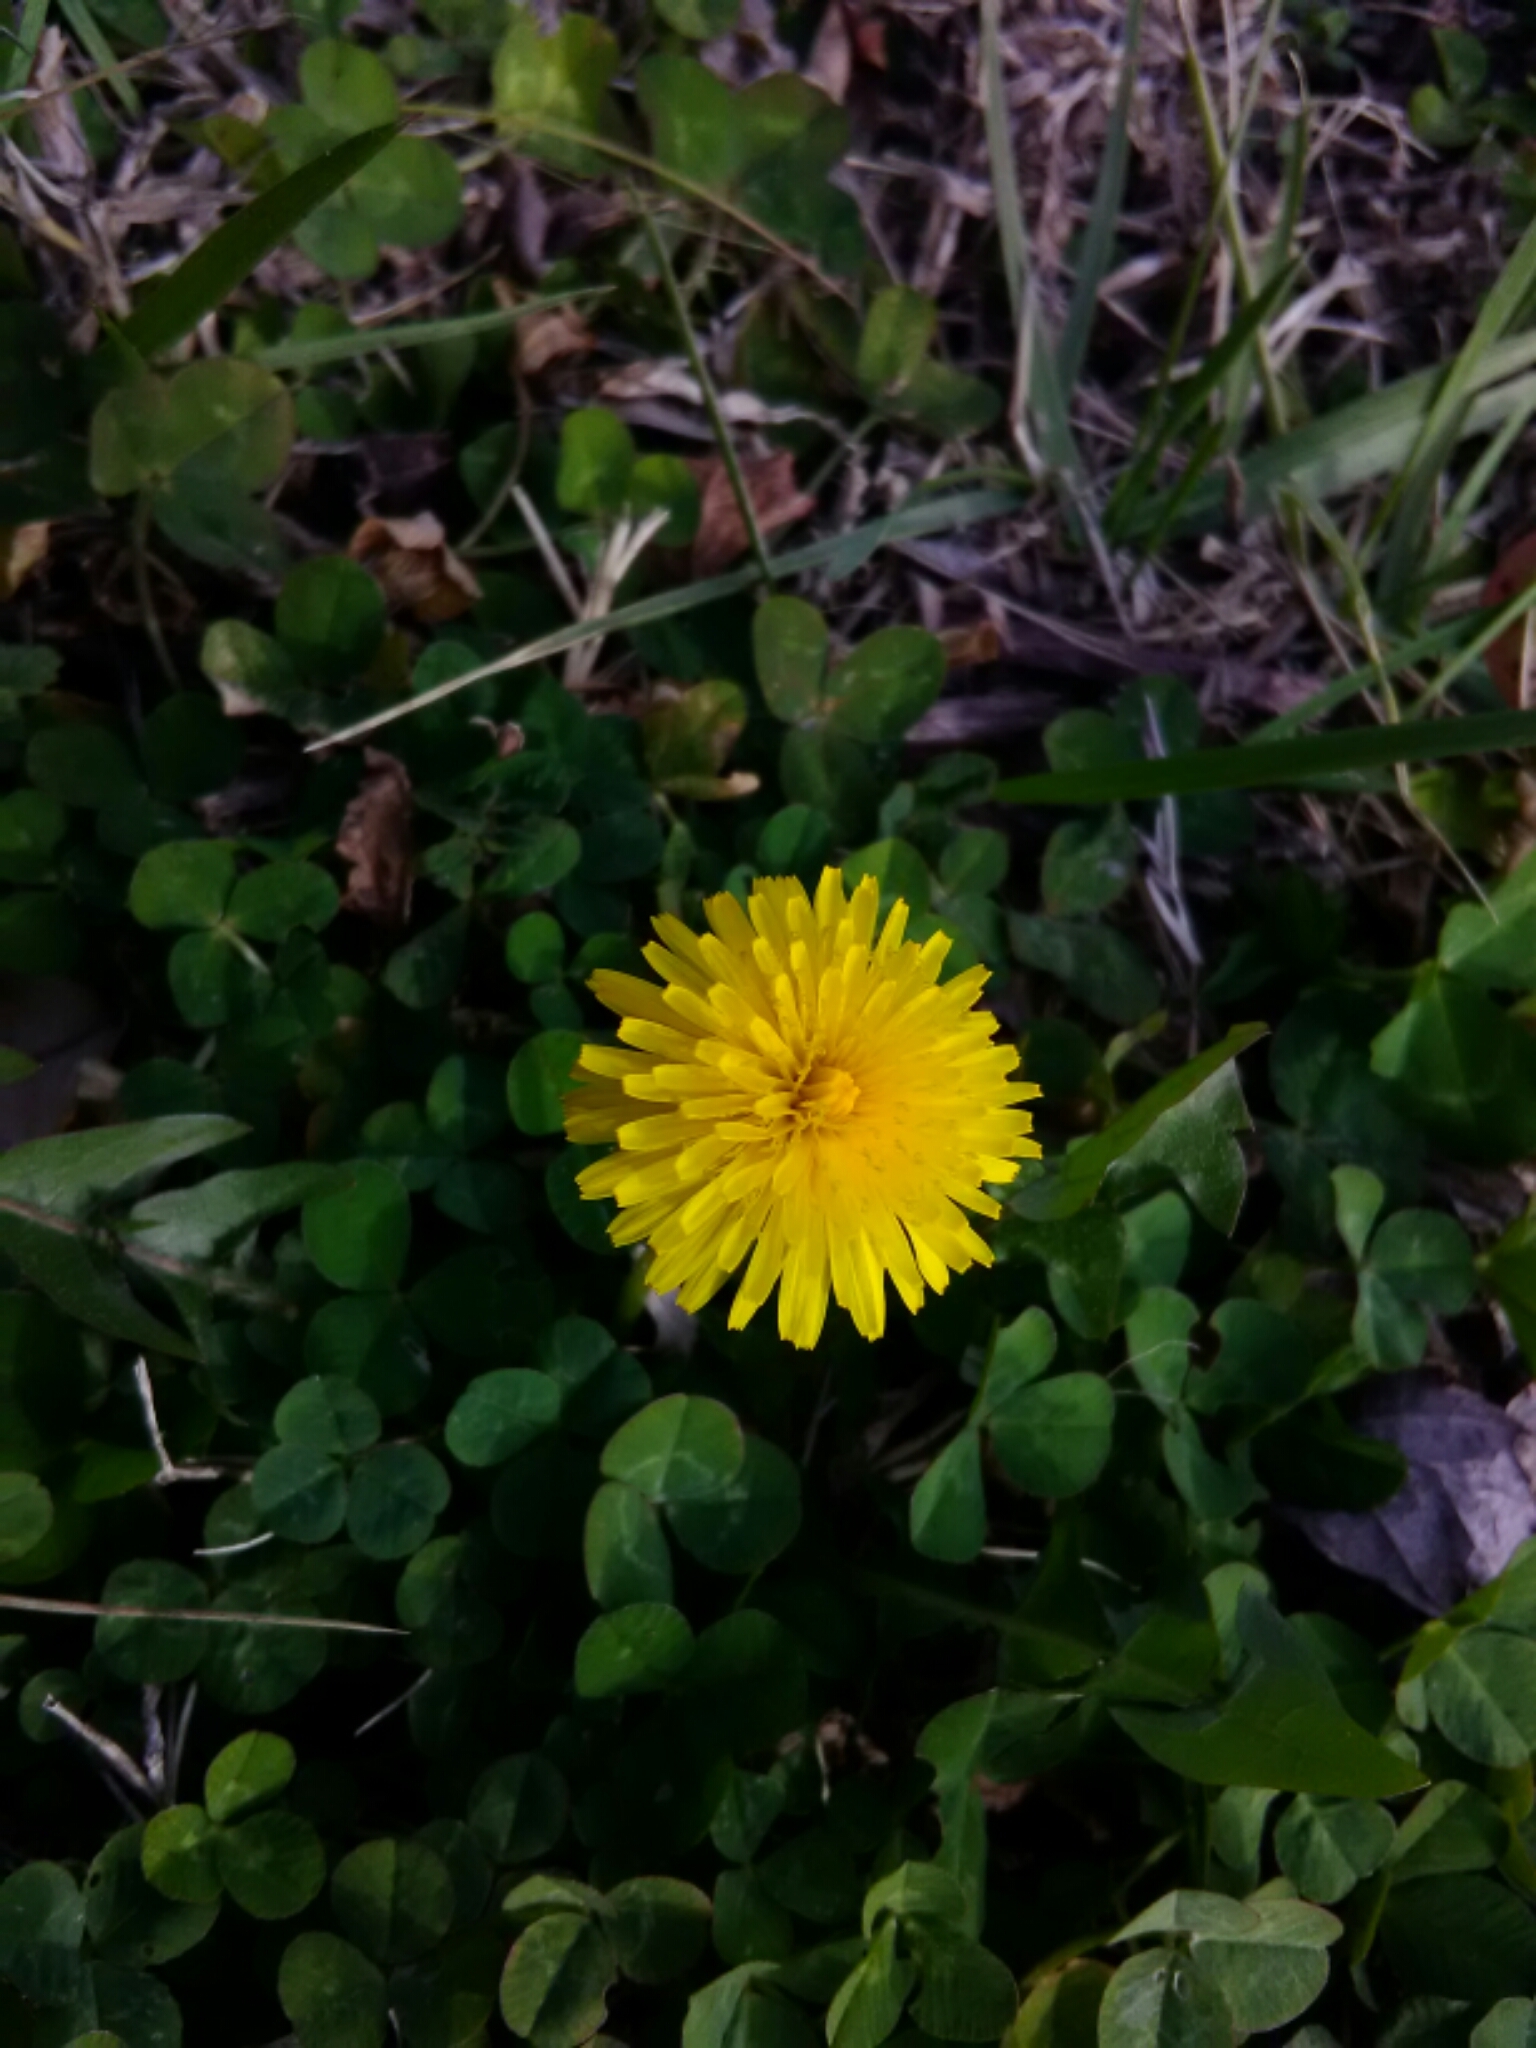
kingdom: Plantae
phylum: Tracheophyta
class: Magnoliopsida
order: Asterales
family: Asteraceae
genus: Taraxacum
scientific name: Taraxacum officinale
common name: Common dandelion
